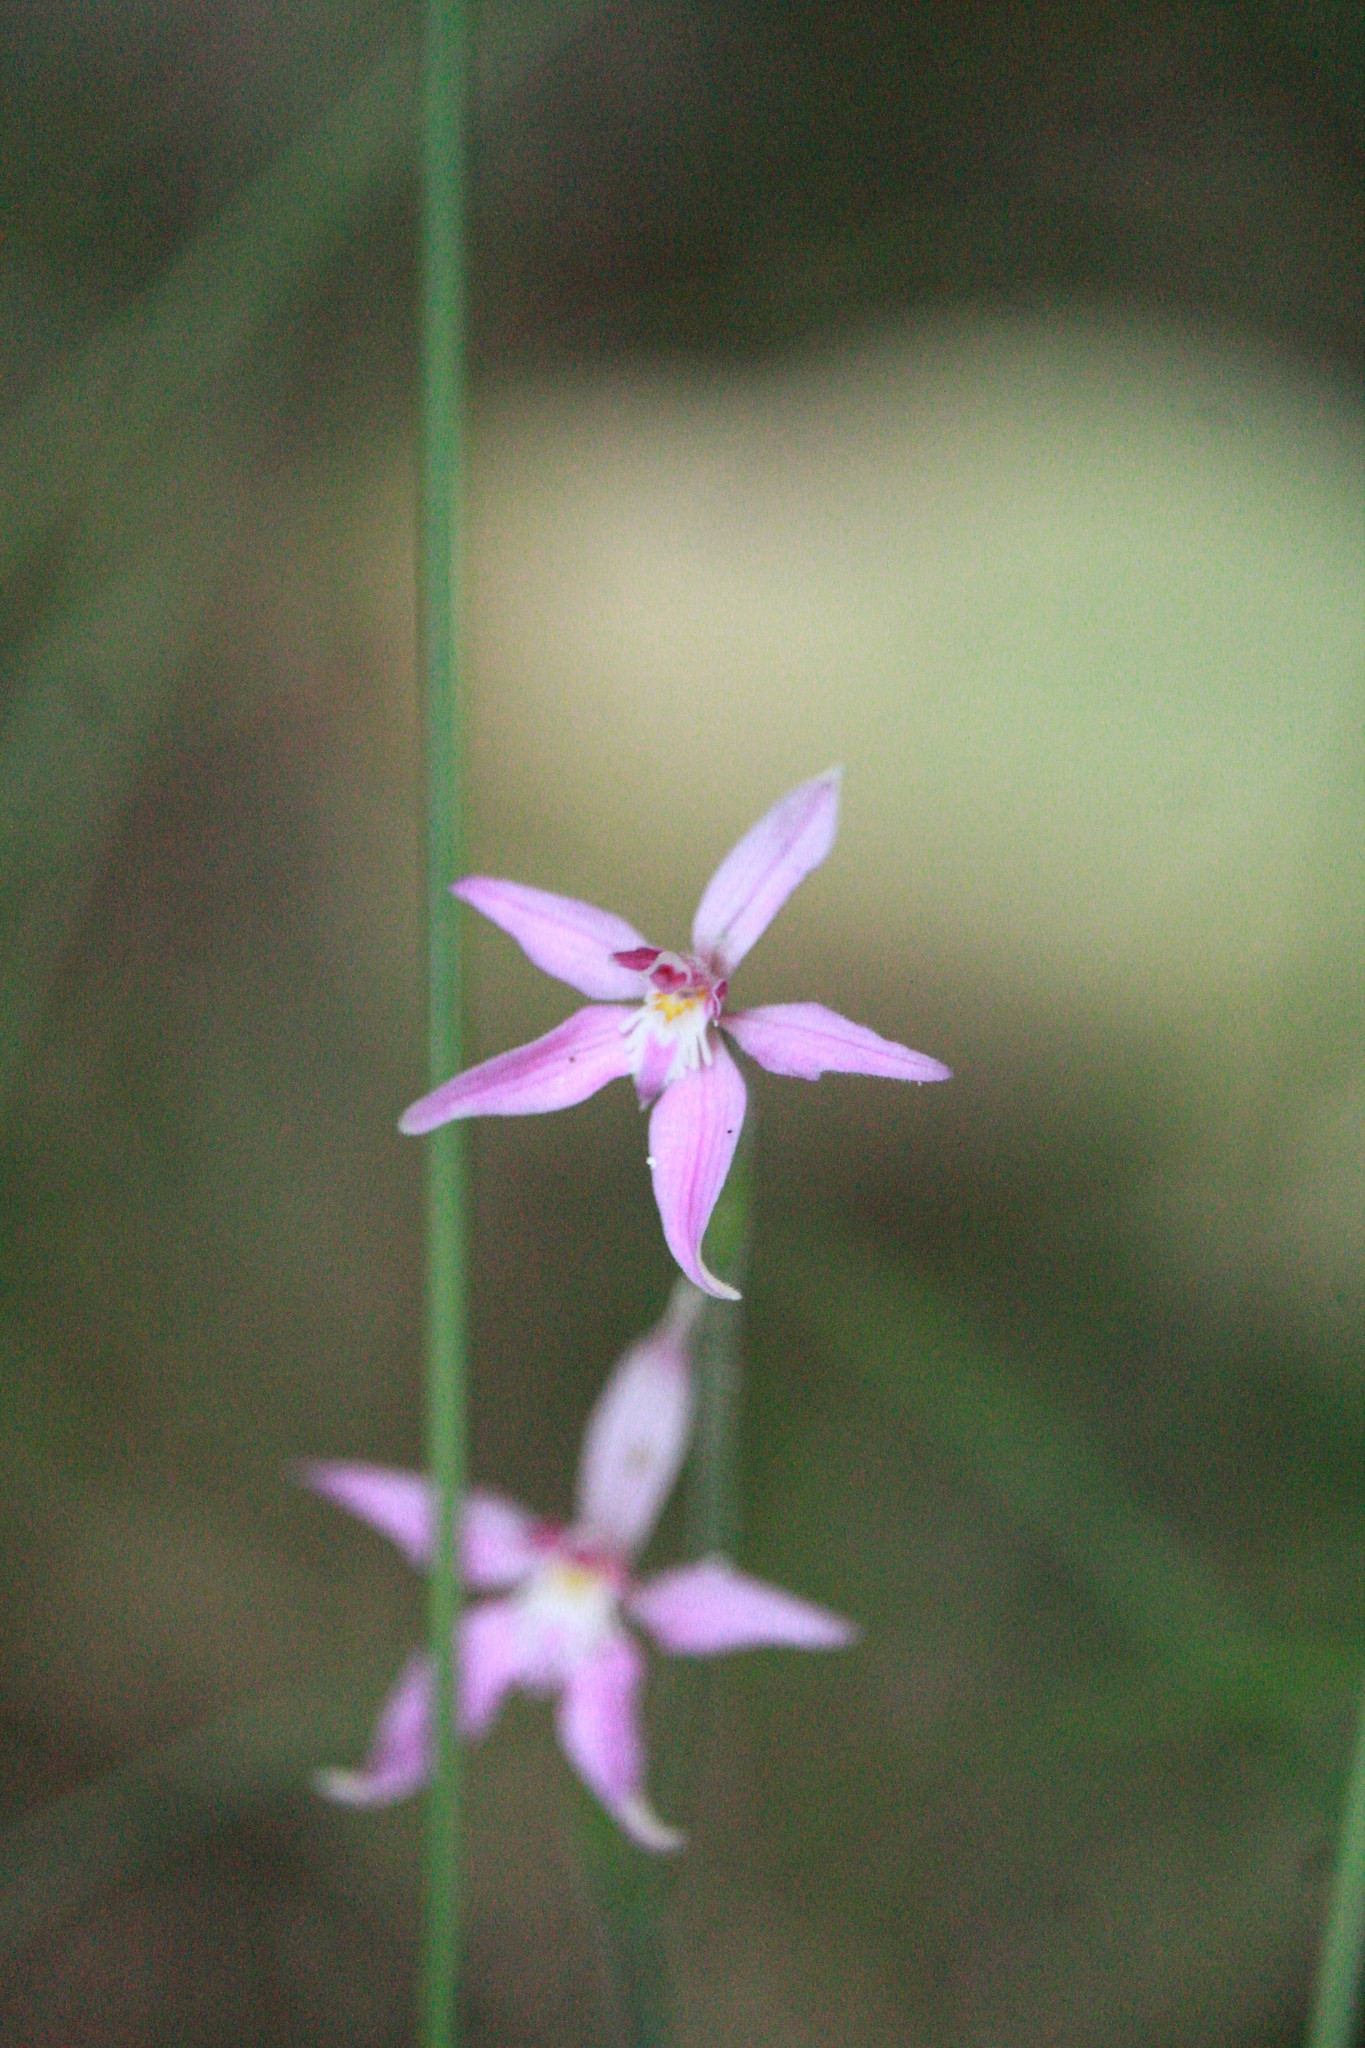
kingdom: Plantae
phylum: Tracheophyta
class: Liliopsida
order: Asparagales
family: Orchidaceae
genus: Caladenia
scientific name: Caladenia latifolia
